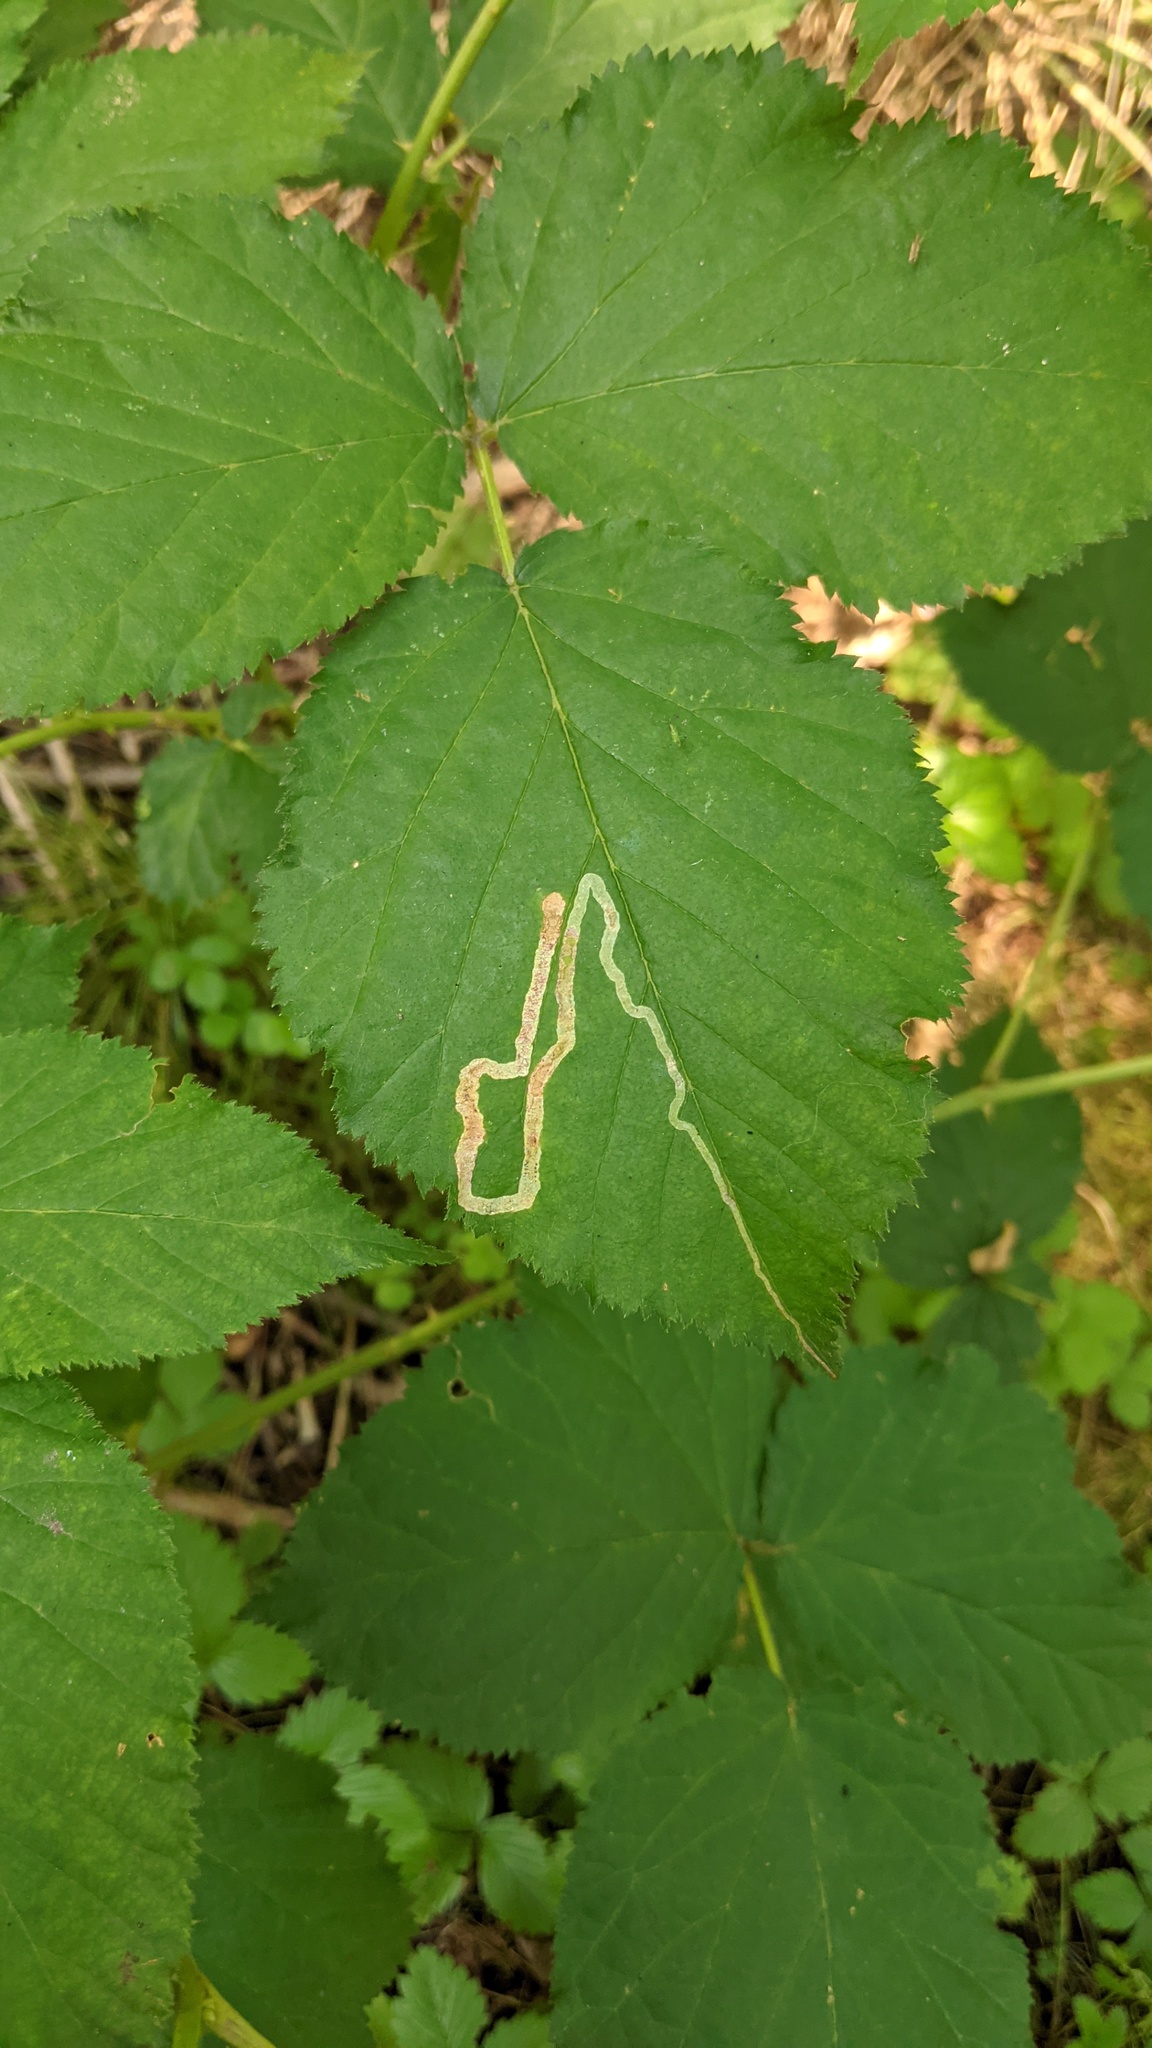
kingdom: Animalia
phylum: Arthropoda
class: Insecta
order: Diptera
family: Agromyzidae
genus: Agromyza
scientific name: Agromyza vockerothi
